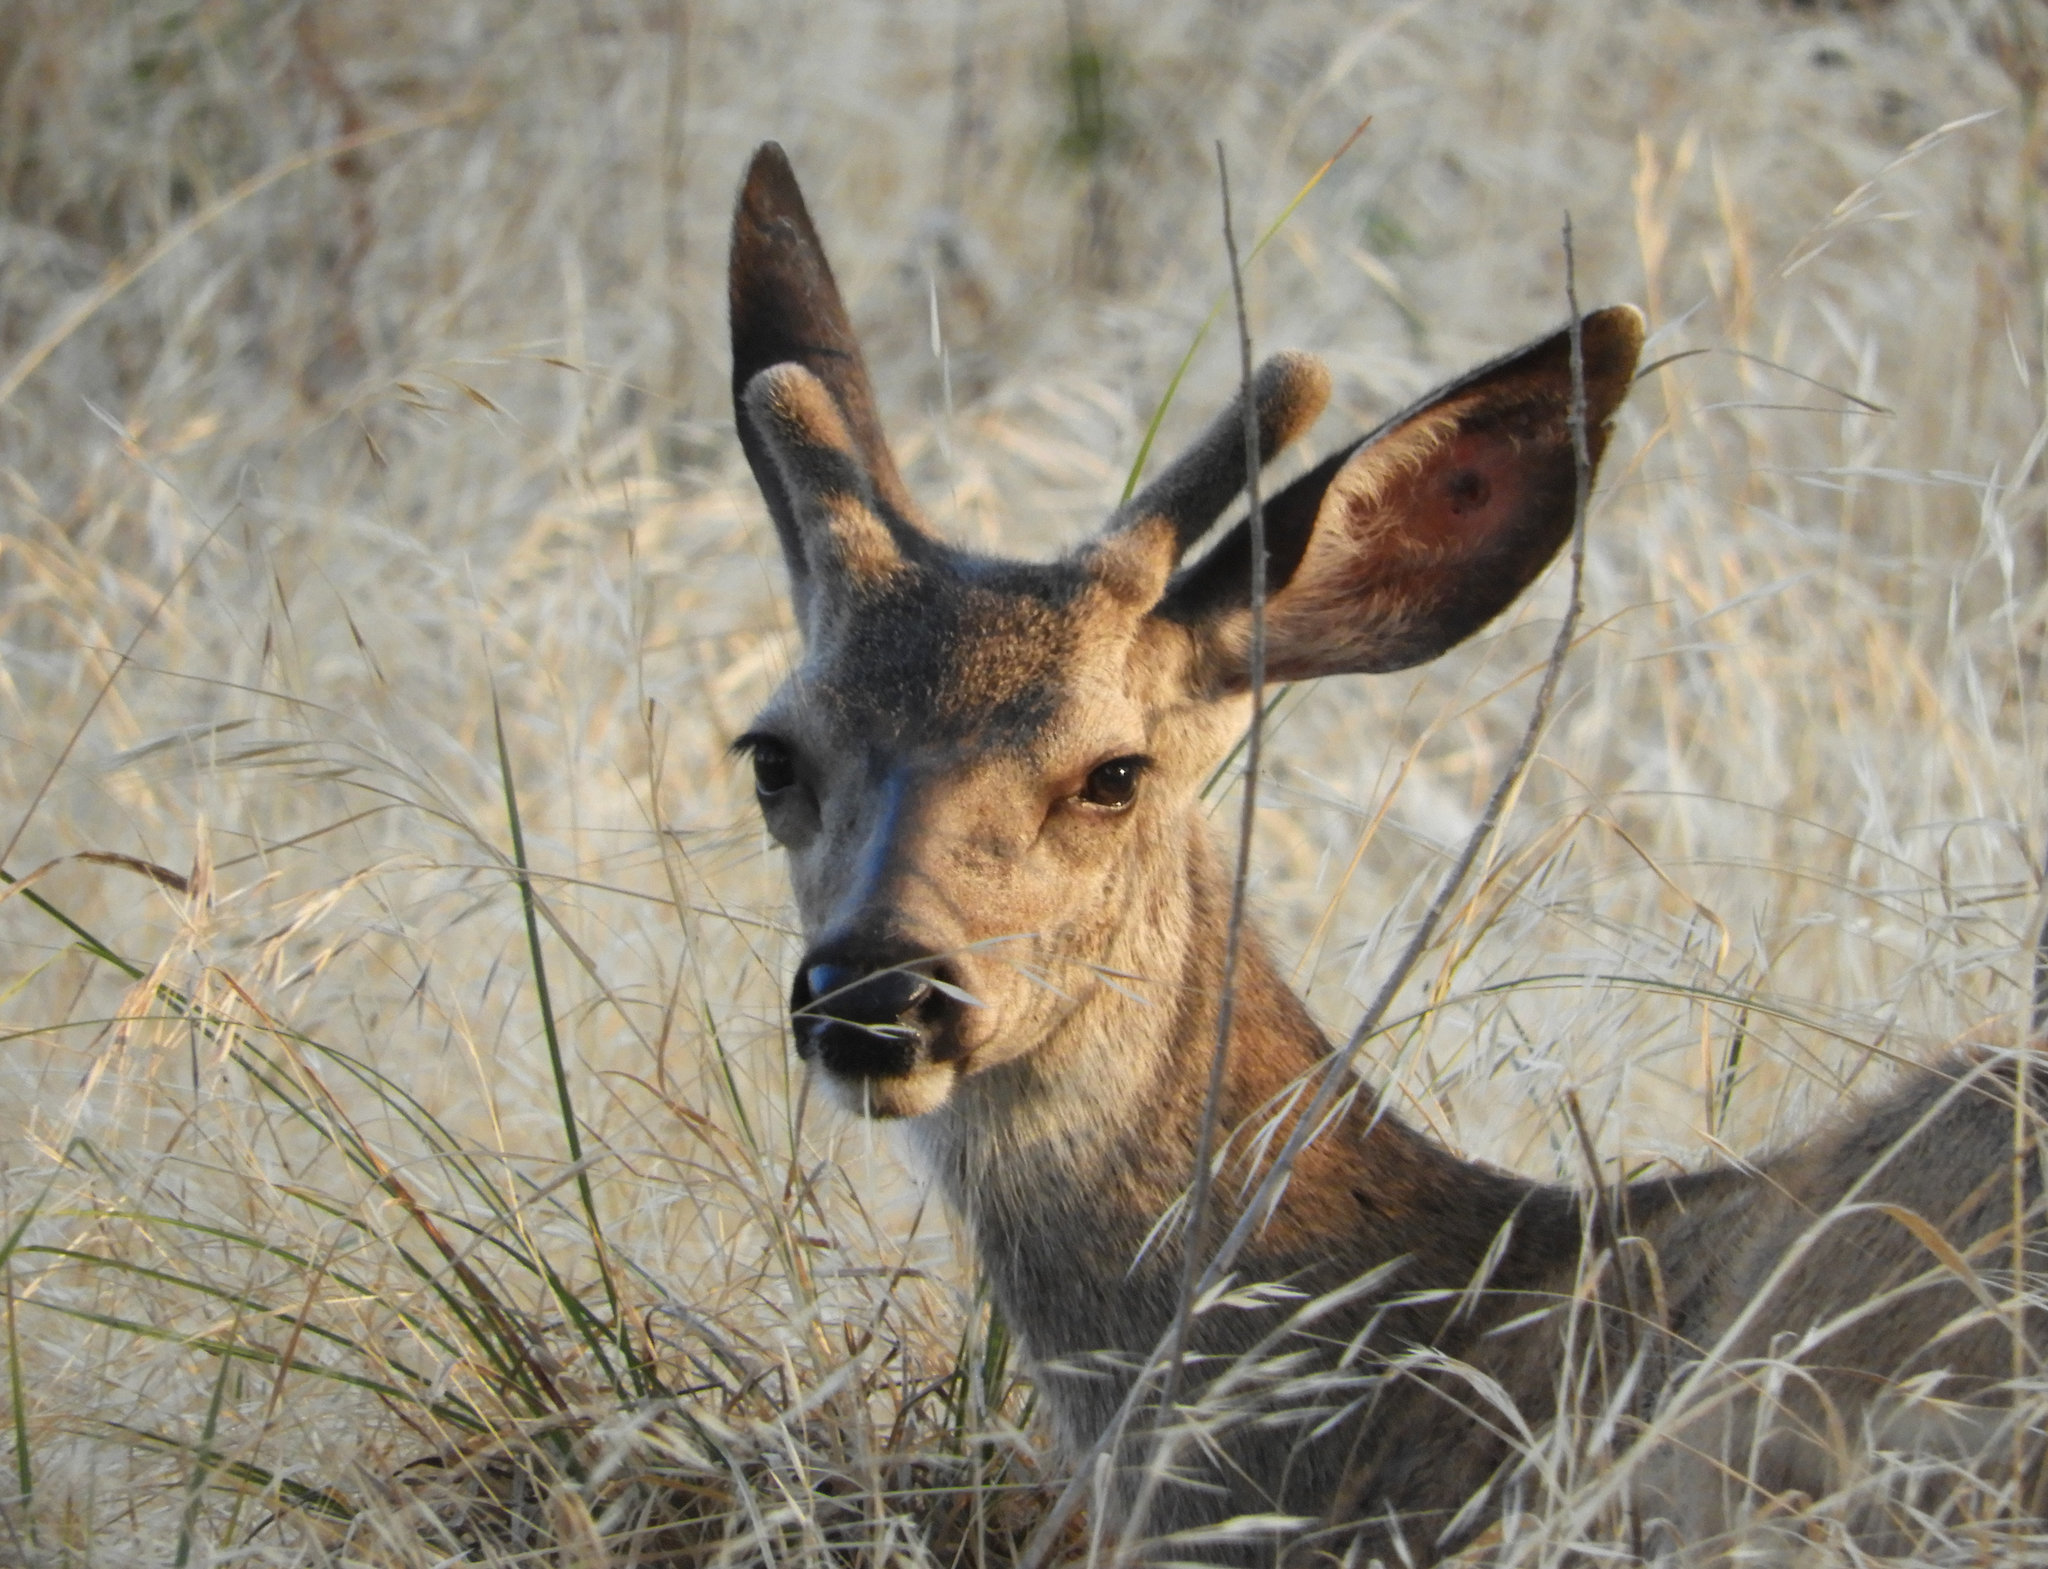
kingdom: Animalia
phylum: Chordata
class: Mammalia
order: Artiodactyla
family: Cervidae
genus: Odocoileus
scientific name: Odocoileus hemionus
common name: Mule deer
